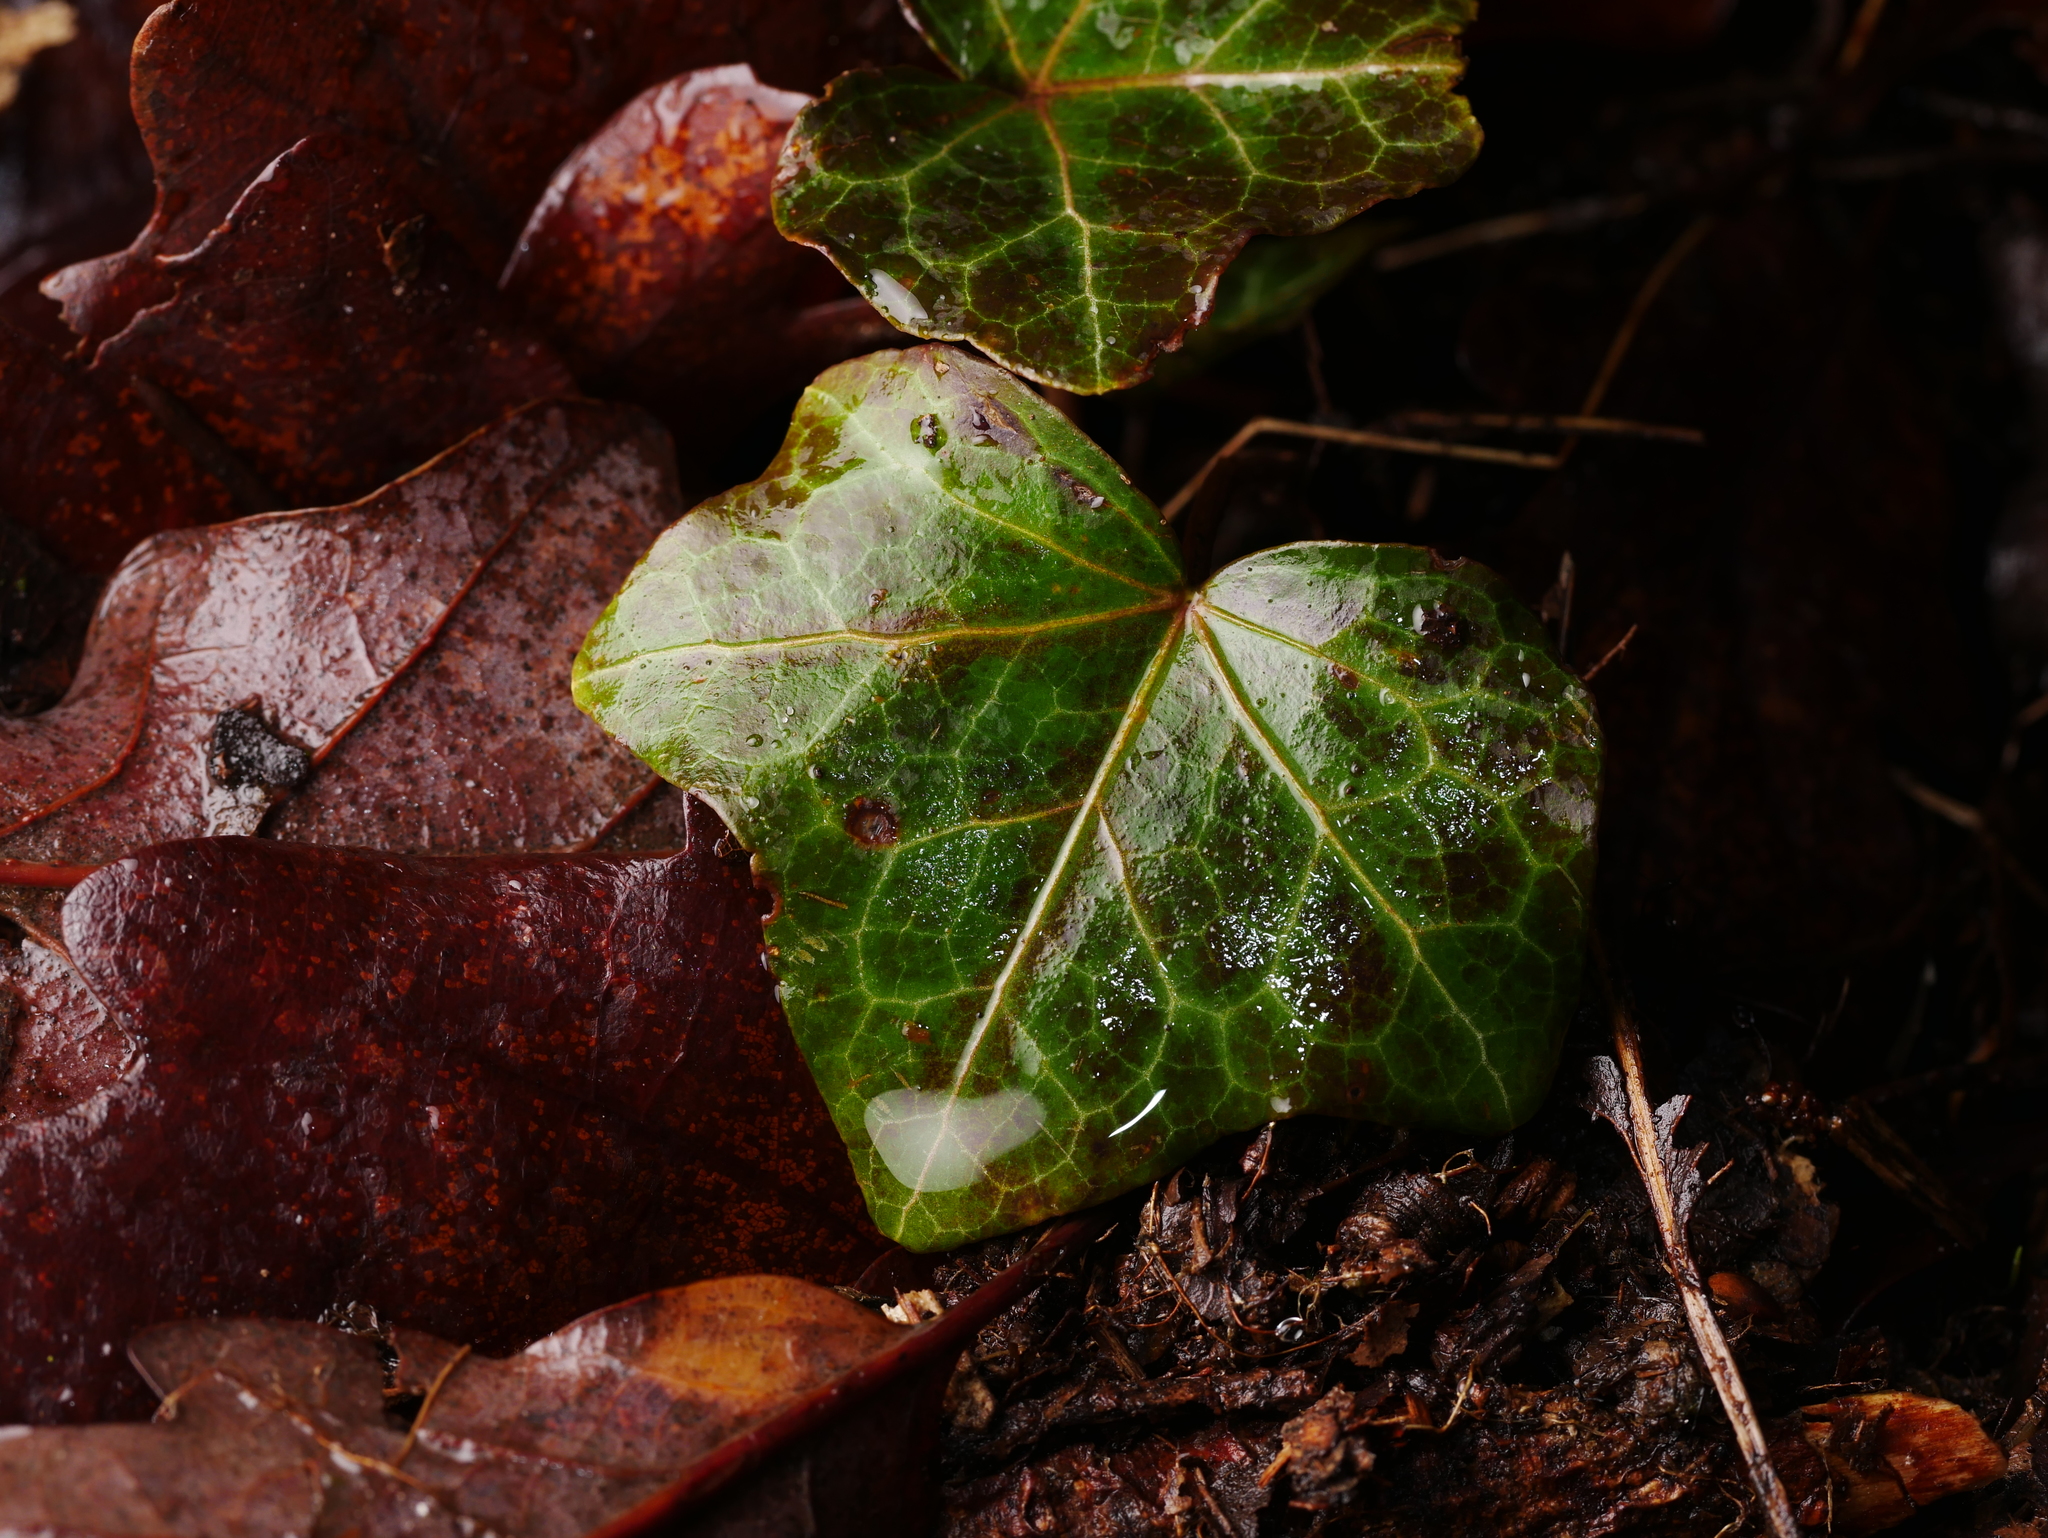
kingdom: Plantae
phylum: Tracheophyta
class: Magnoliopsida
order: Apiales
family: Araliaceae
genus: Hedera
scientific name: Hedera helix
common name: Ivy
